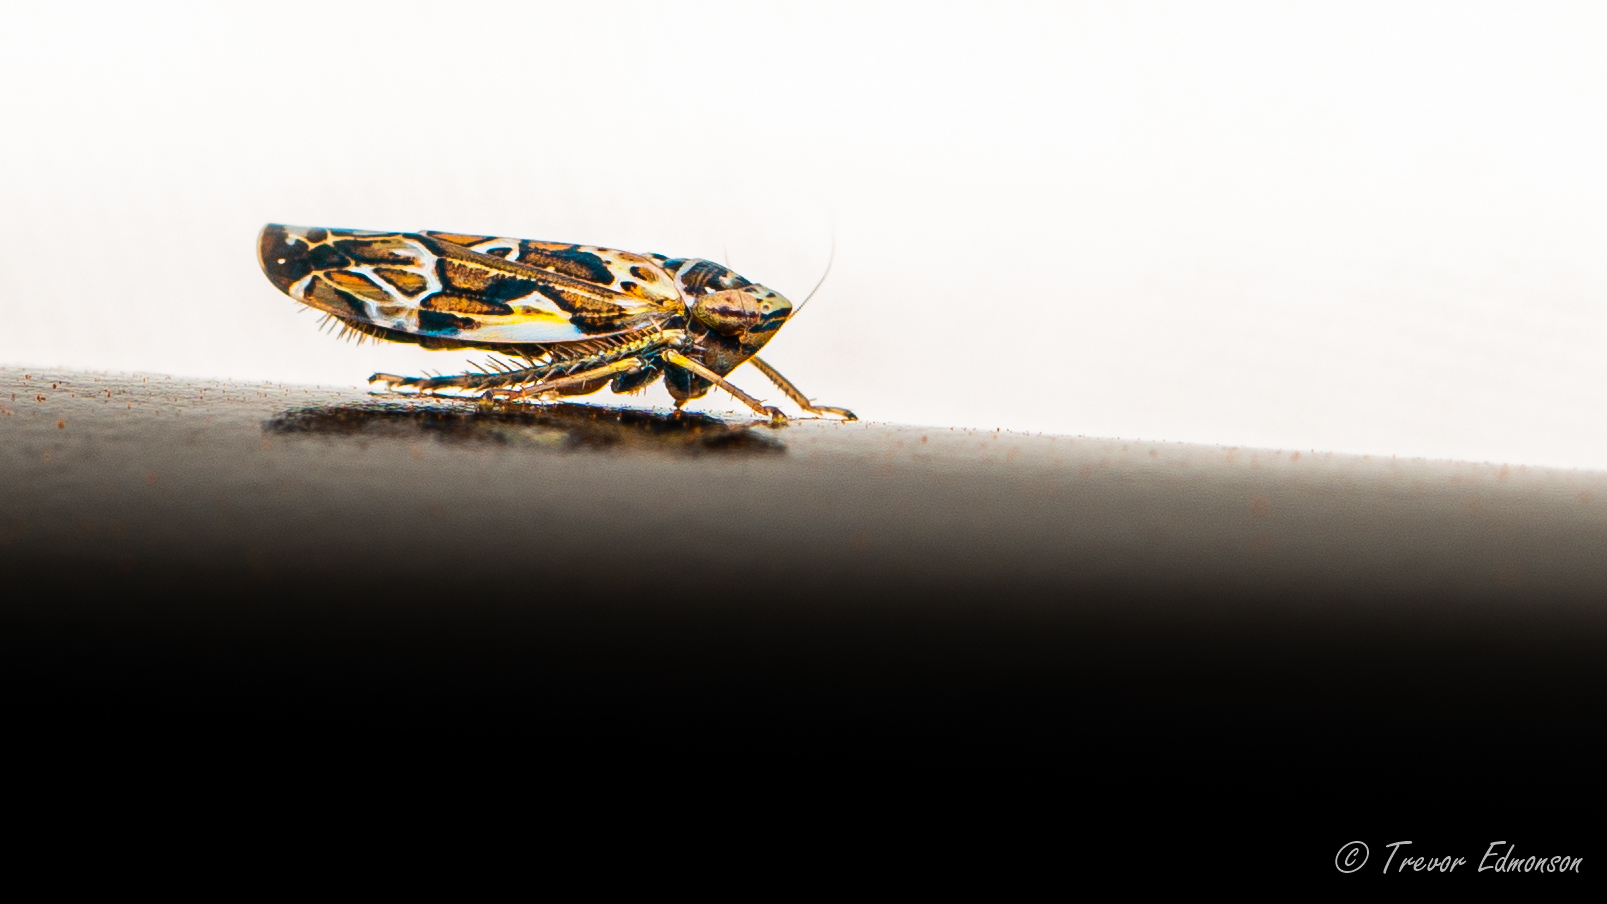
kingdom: Animalia
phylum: Arthropoda
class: Insecta
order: Hemiptera
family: Cicadellidae
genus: Sanctanus
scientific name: Sanctanus cruciatus
